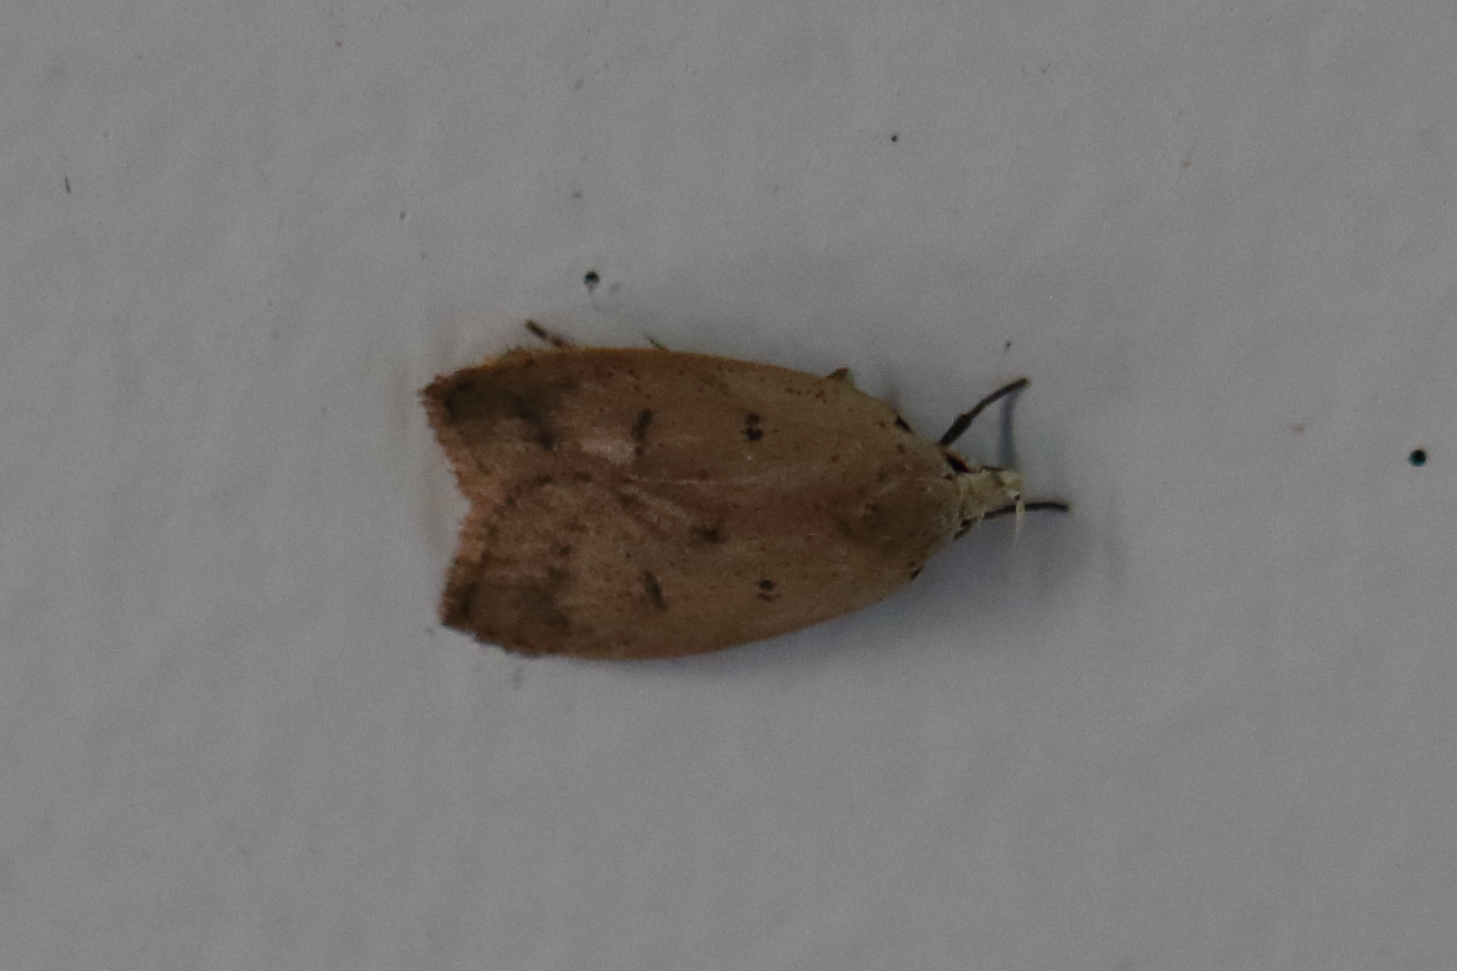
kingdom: Animalia
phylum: Arthropoda
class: Insecta
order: Lepidoptera
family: Peleopodidae
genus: Machimia
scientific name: Machimia tentoriferella
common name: Gold-striped leaftier moth
